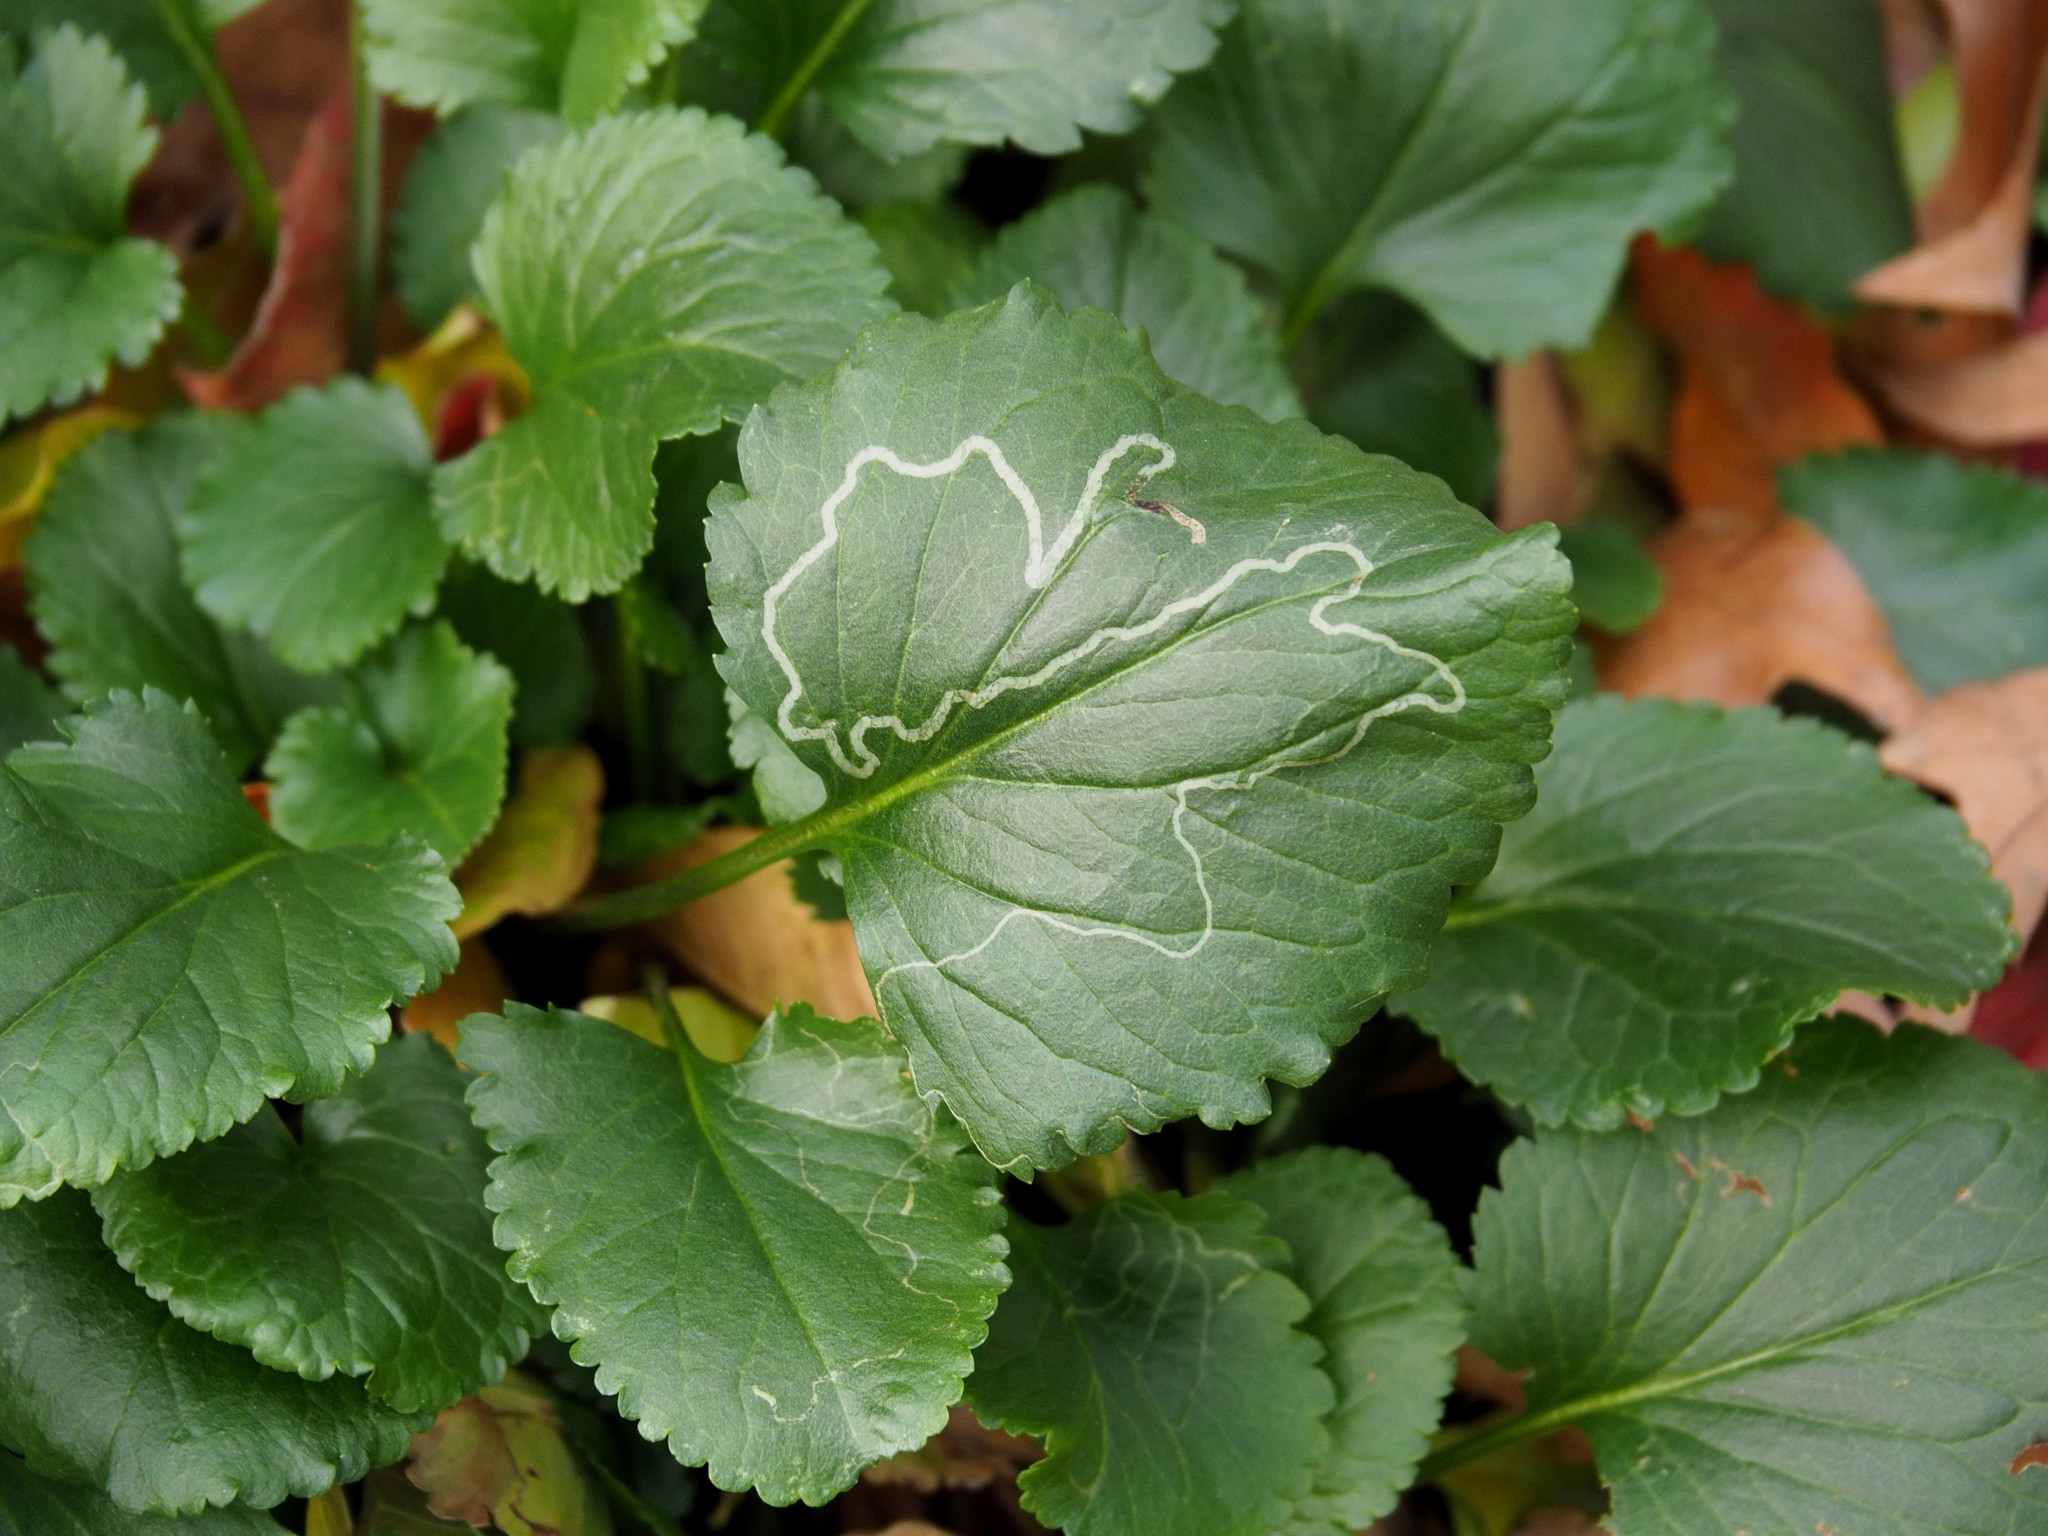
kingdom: Animalia
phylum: Arthropoda
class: Insecta
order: Lepidoptera
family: Gracillariidae
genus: Phyllocnistis
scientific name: Phyllocnistis insignis
